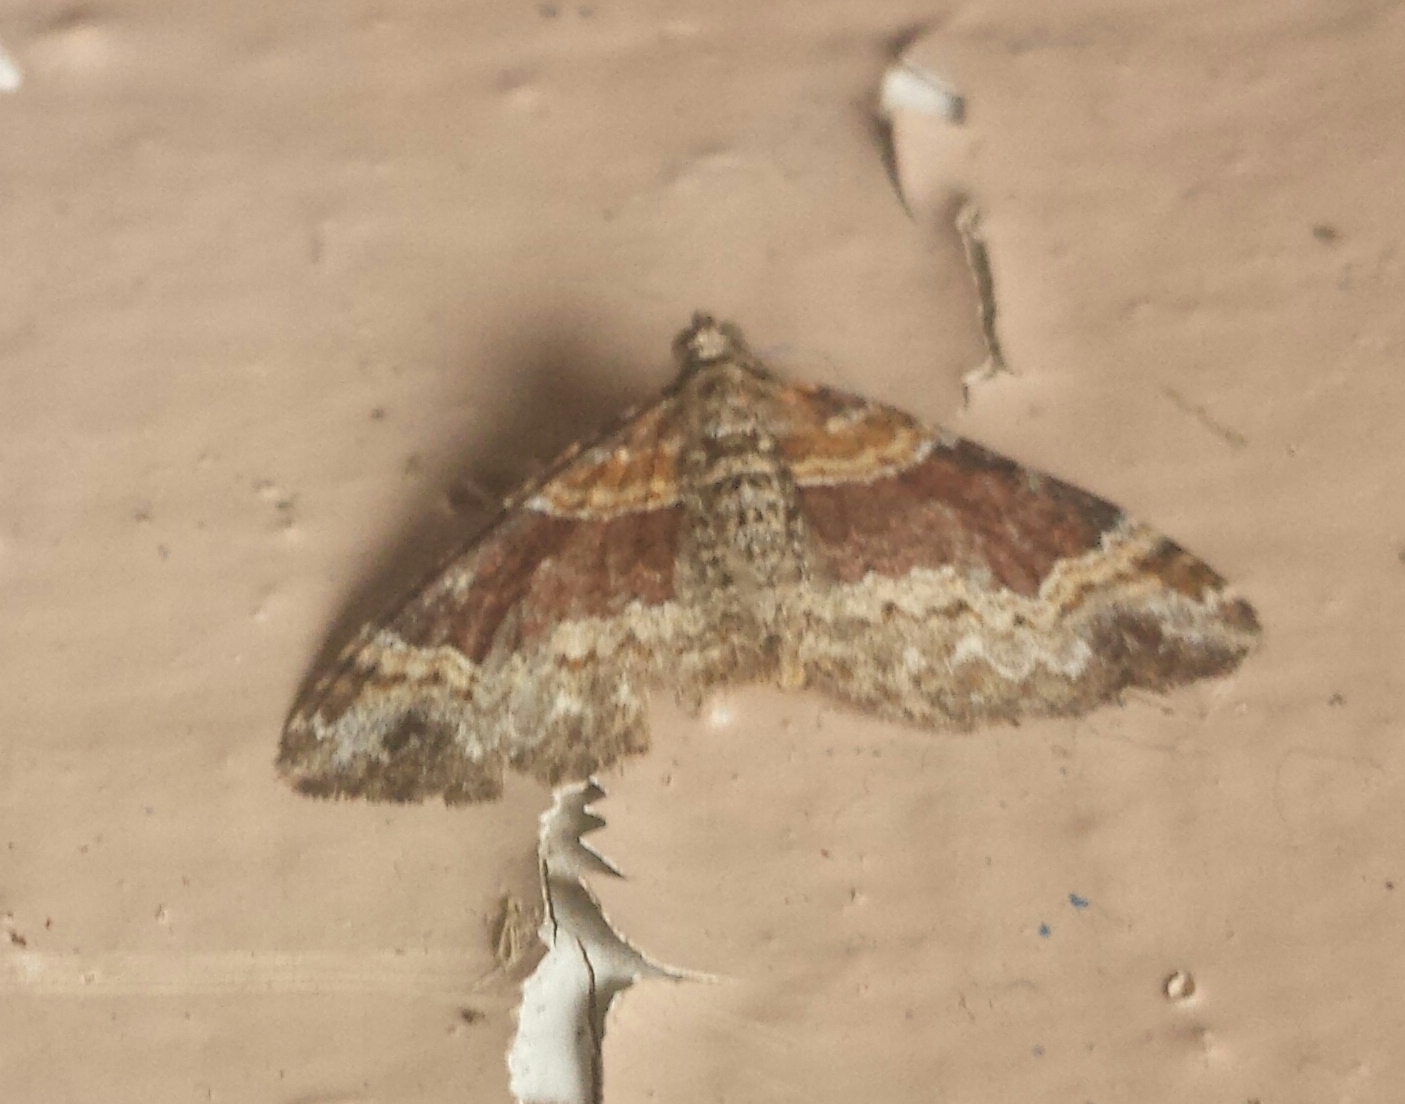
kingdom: Animalia
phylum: Arthropoda
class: Insecta
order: Lepidoptera
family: Geometridae
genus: Xanthorhoe
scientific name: Xanthorhoe ferrugata
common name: Dark-barred twin-spot carpet
